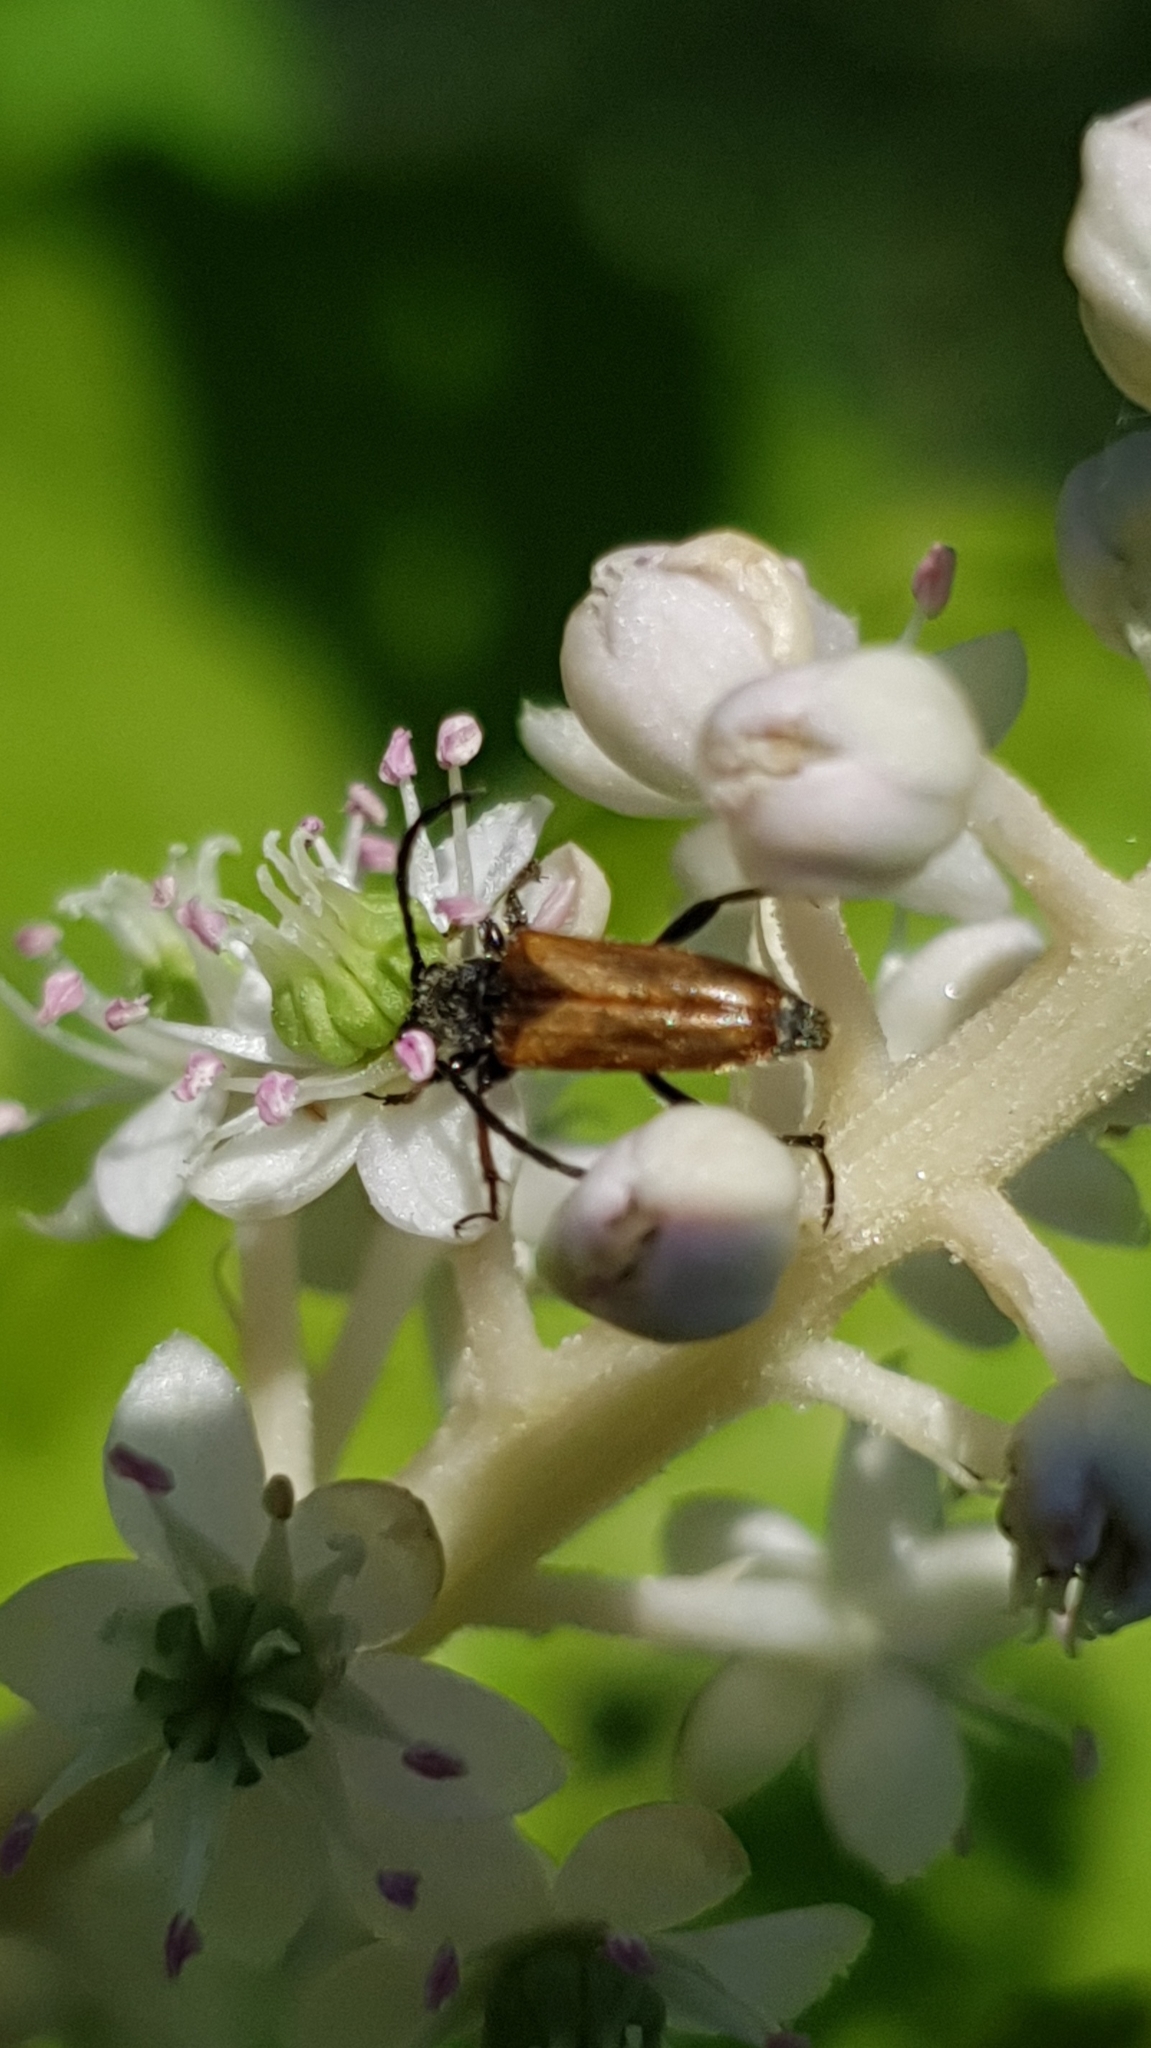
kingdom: Animalia
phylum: Arthropoda
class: Insecta
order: Coleoptera
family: Cerambycidae
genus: Pseudovadonia
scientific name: Pseudovadonia livida
